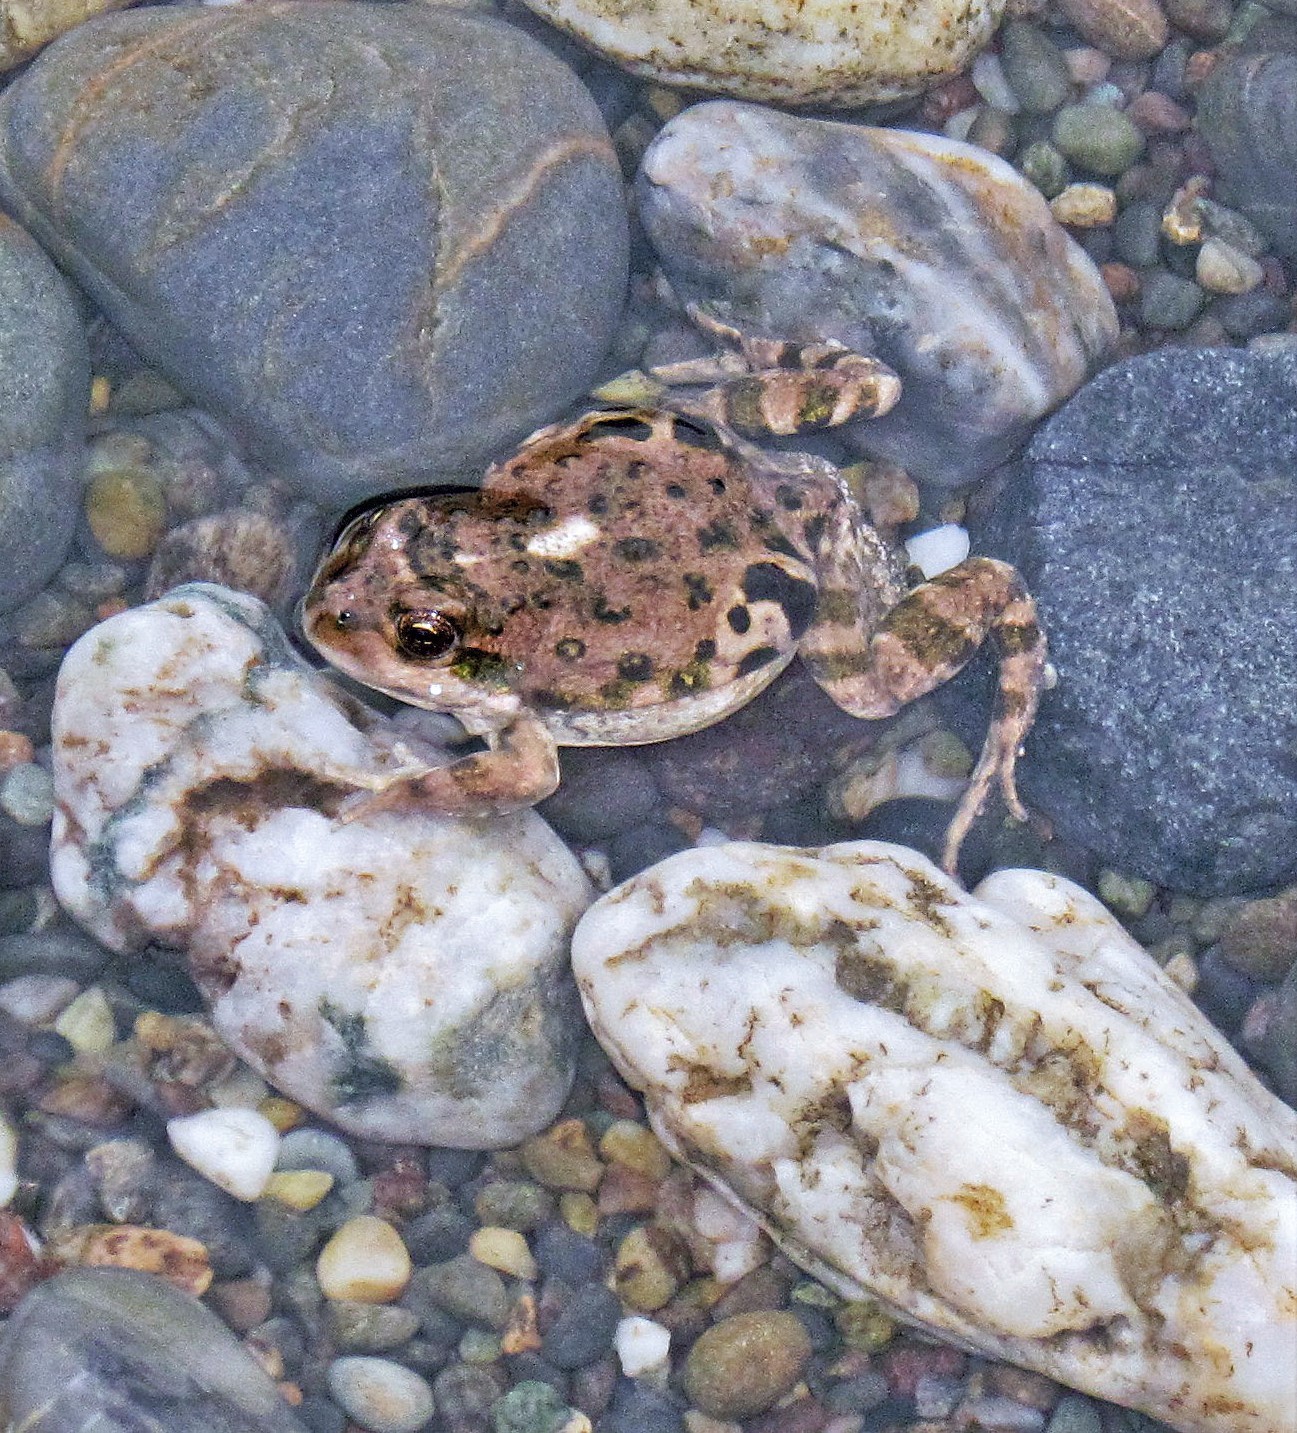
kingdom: Animalia
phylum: Chordata
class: Amphibia
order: Anura
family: Leptodactylidae
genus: Pleurodema
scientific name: Pleurodema bufoninum
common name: Large four-eyed frog
